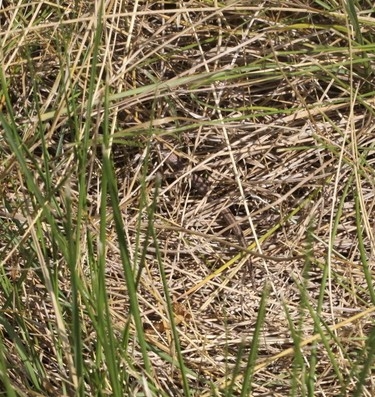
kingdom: Animalia
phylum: Chordata
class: Squamata
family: Scincidae
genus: Chalcides
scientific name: Chalcides striatus
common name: Western (or iberian) three-toed skink
